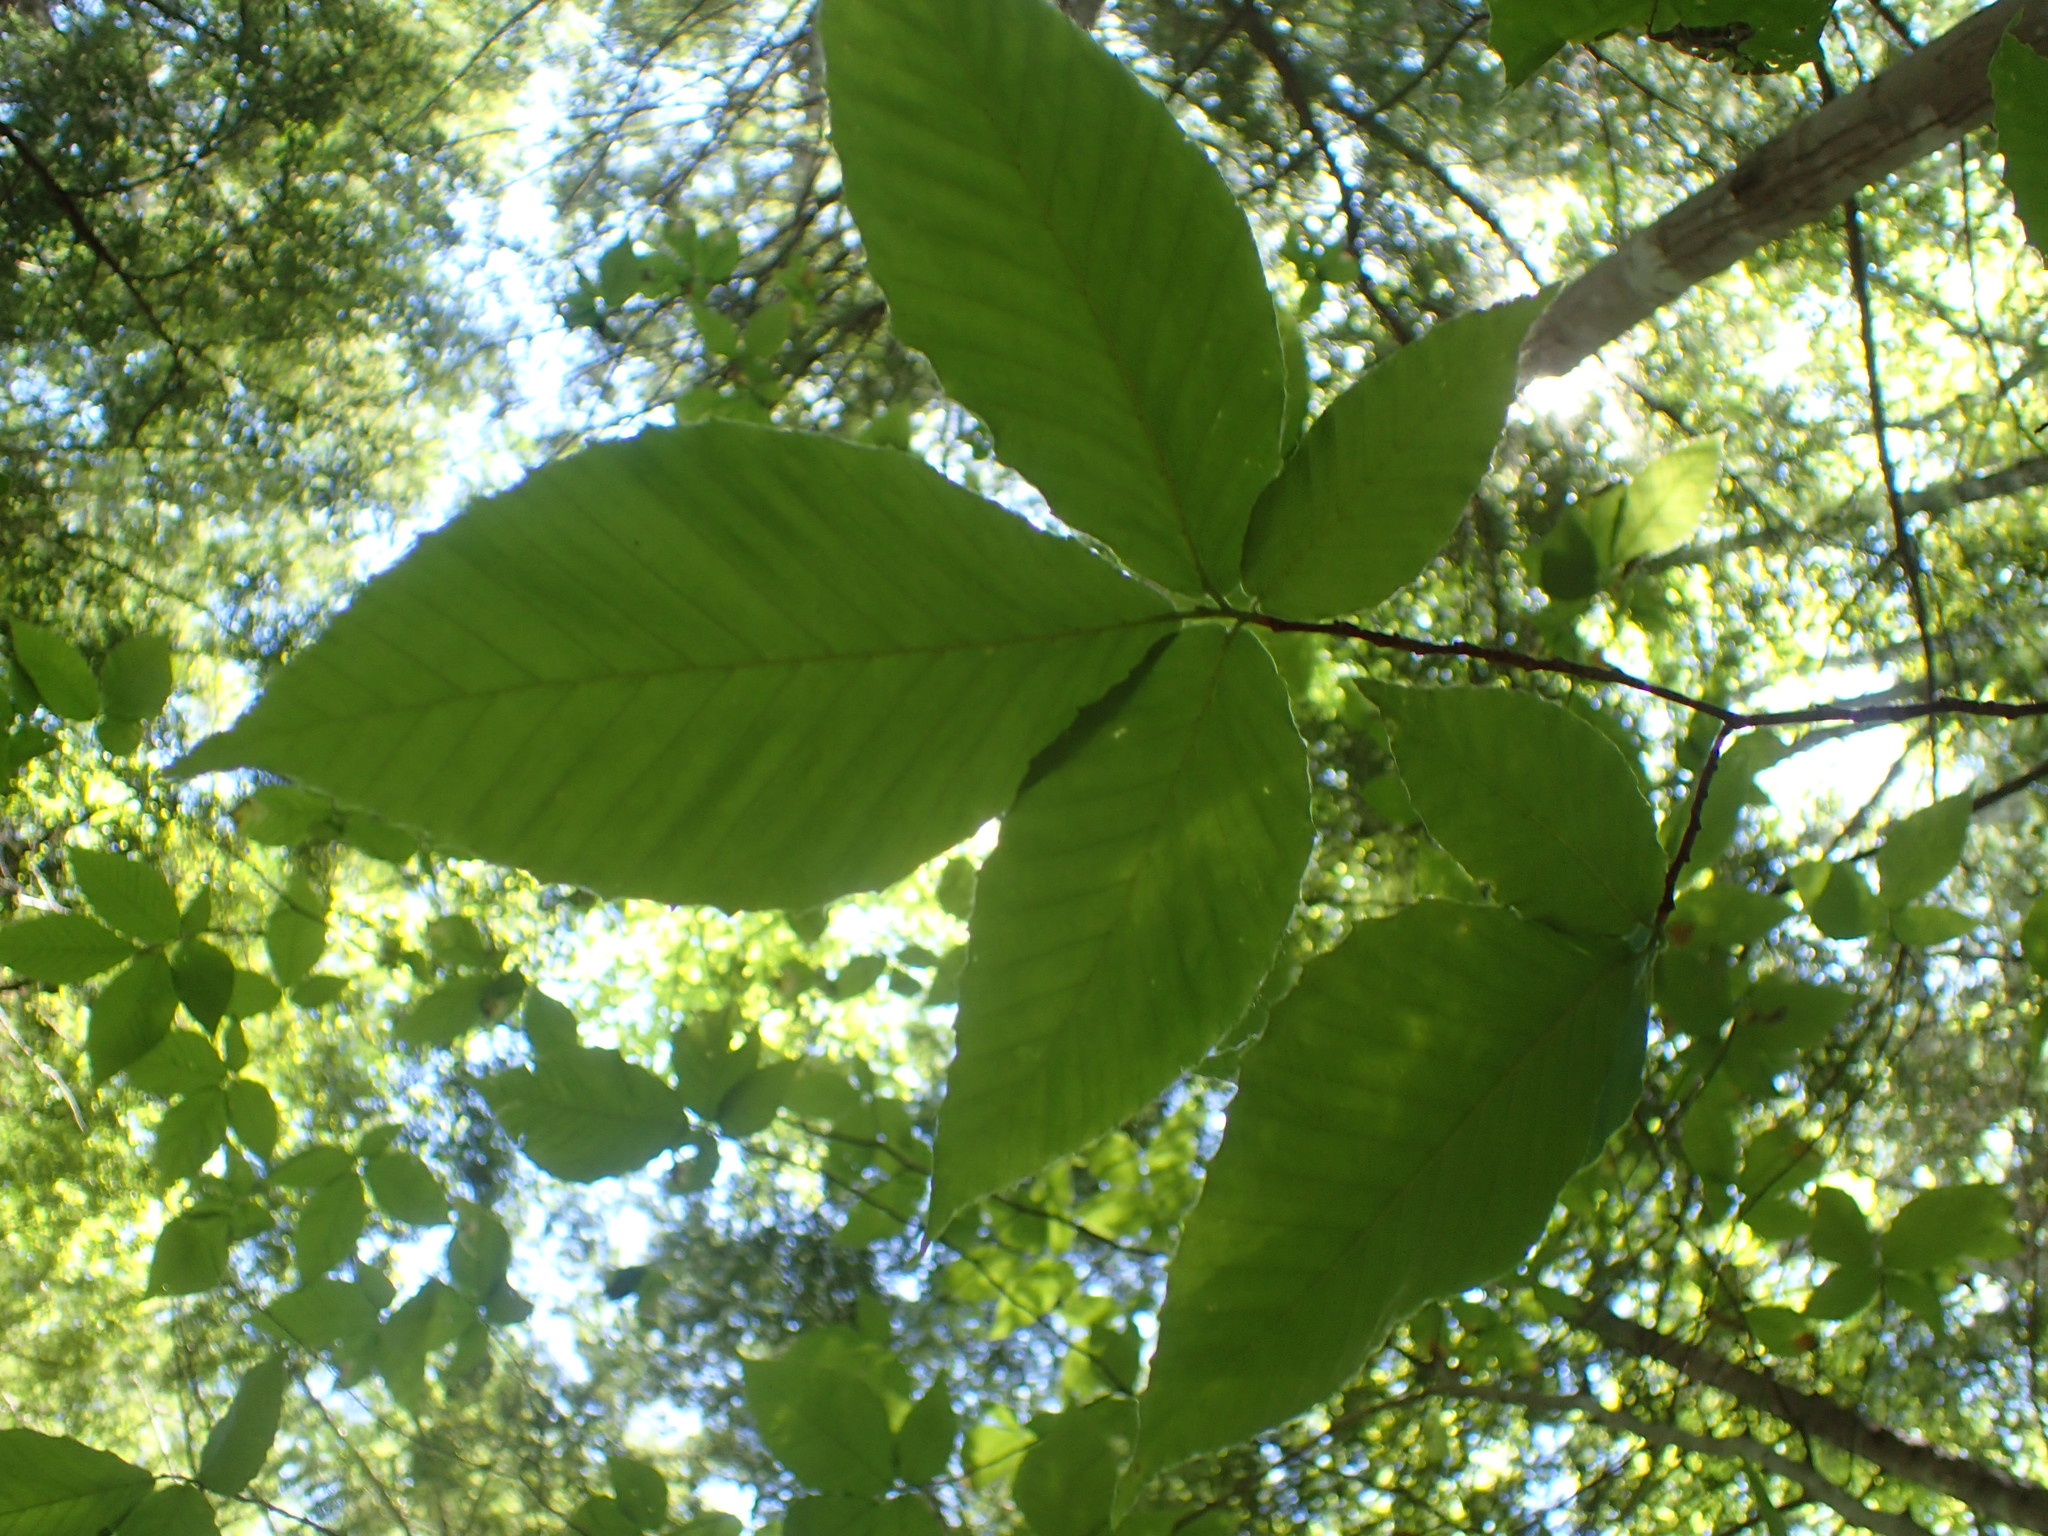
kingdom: Plantae
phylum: Tracheophyta
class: Magnoliopsida
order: Fagales
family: Fagaceae
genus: Fagus
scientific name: Fagus grandifolia
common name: American beech
